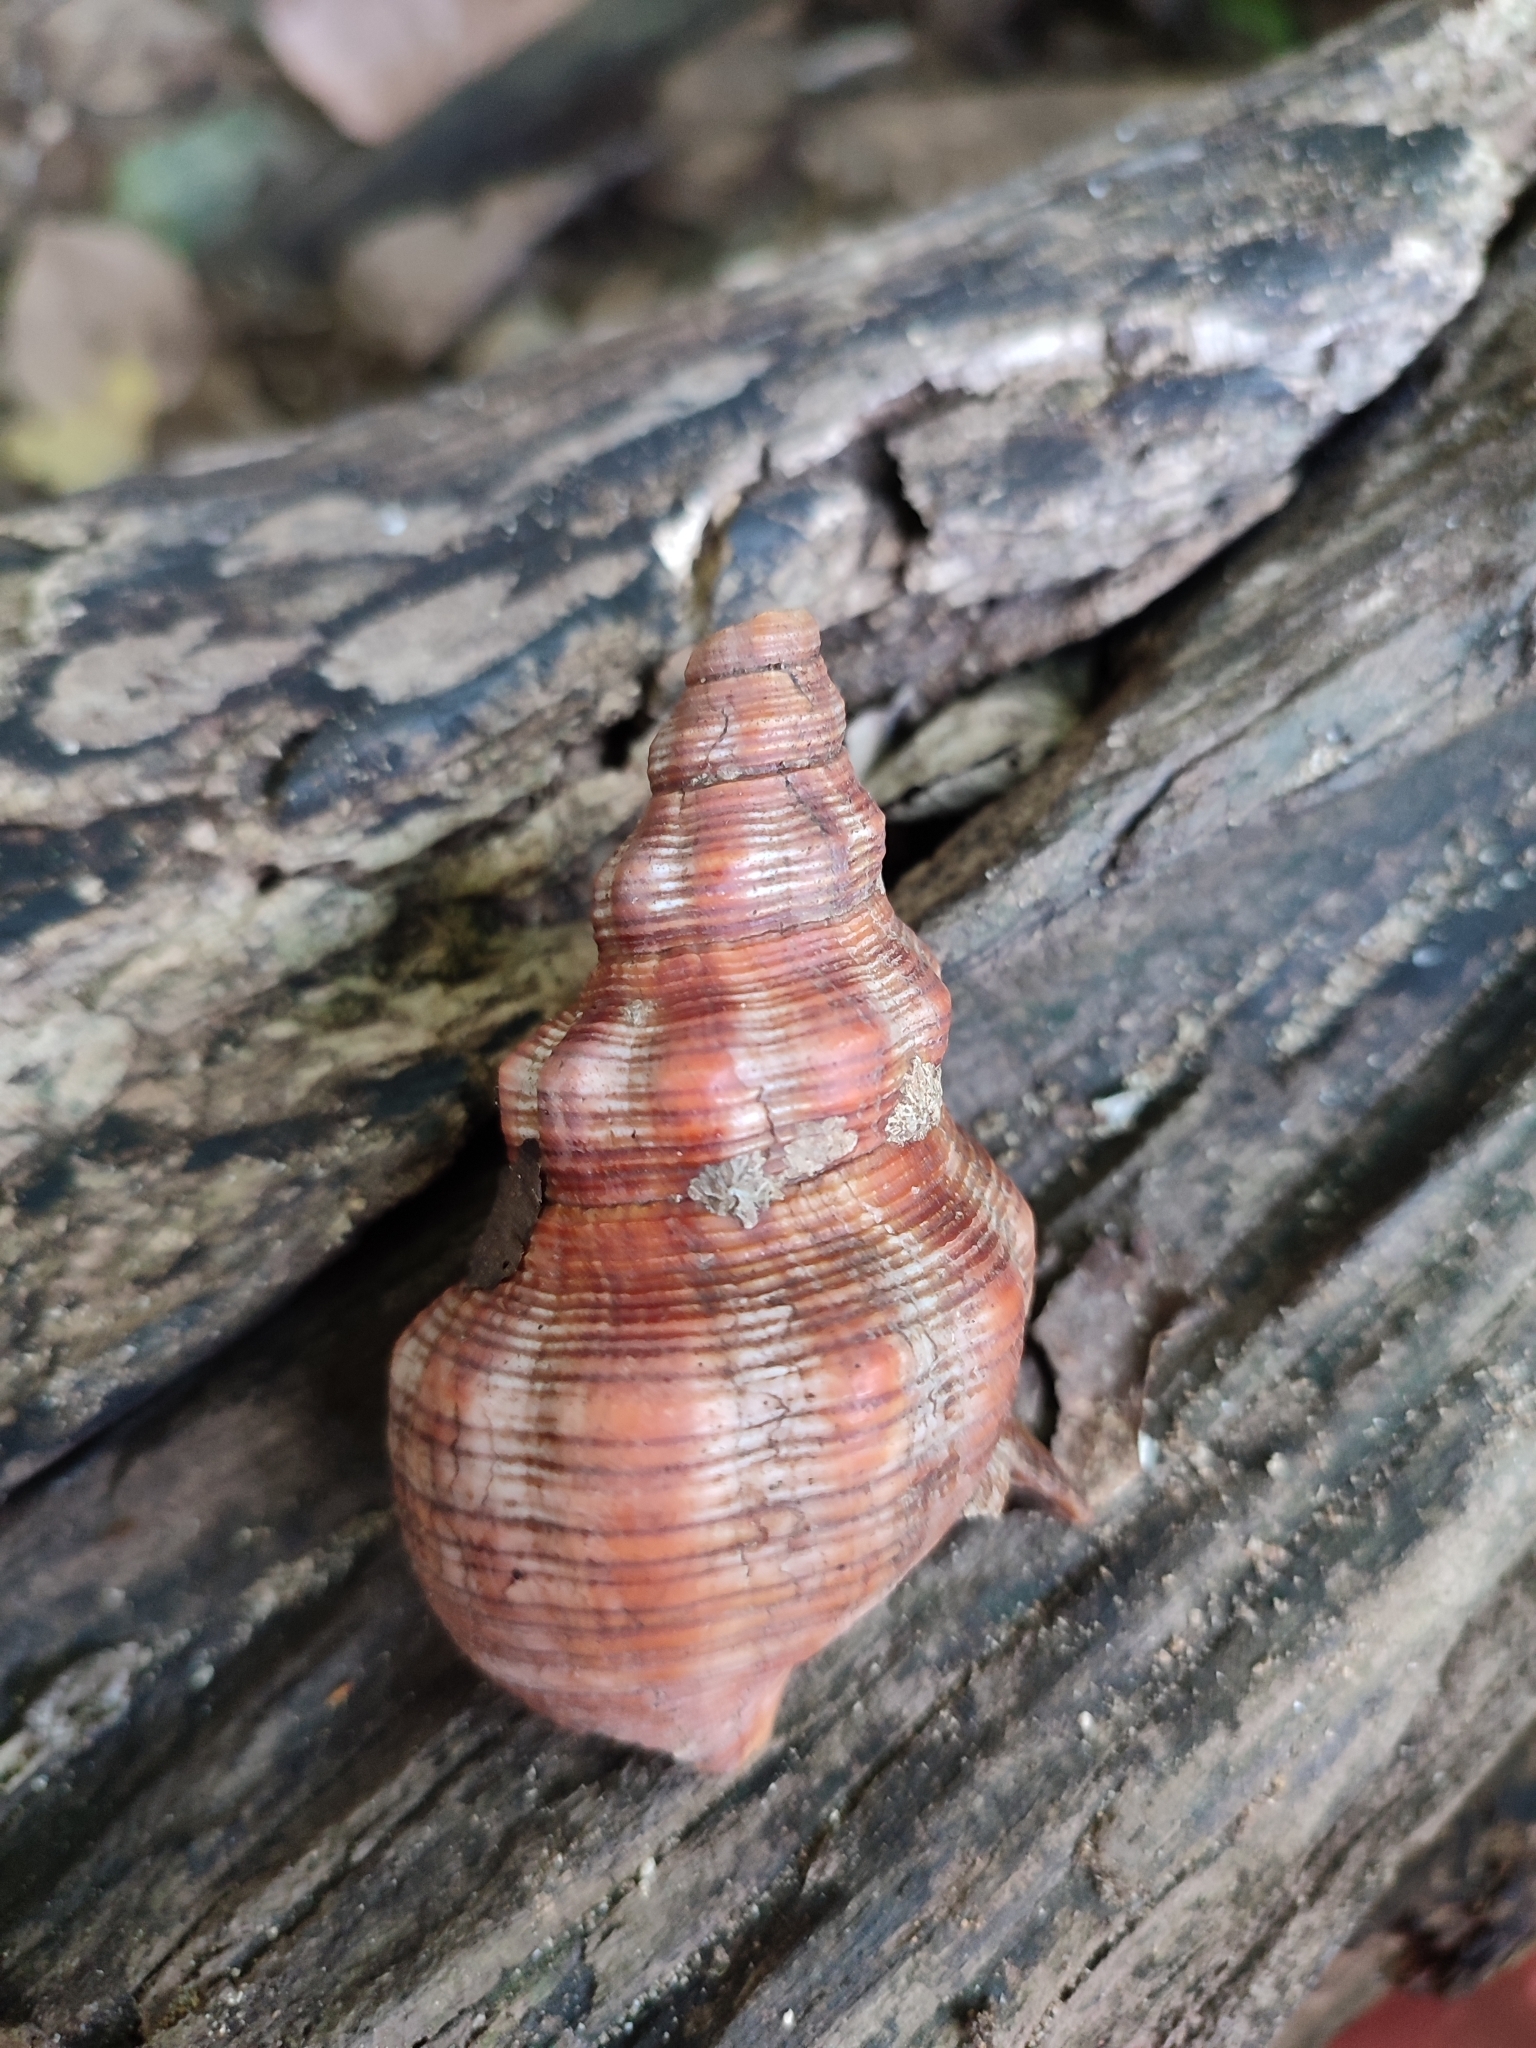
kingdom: Animalia
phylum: Mollusca
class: Gastropoda
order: Neogastropoda
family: Fasciolariidae
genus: Filifusus
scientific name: Filifusus filamentosus
